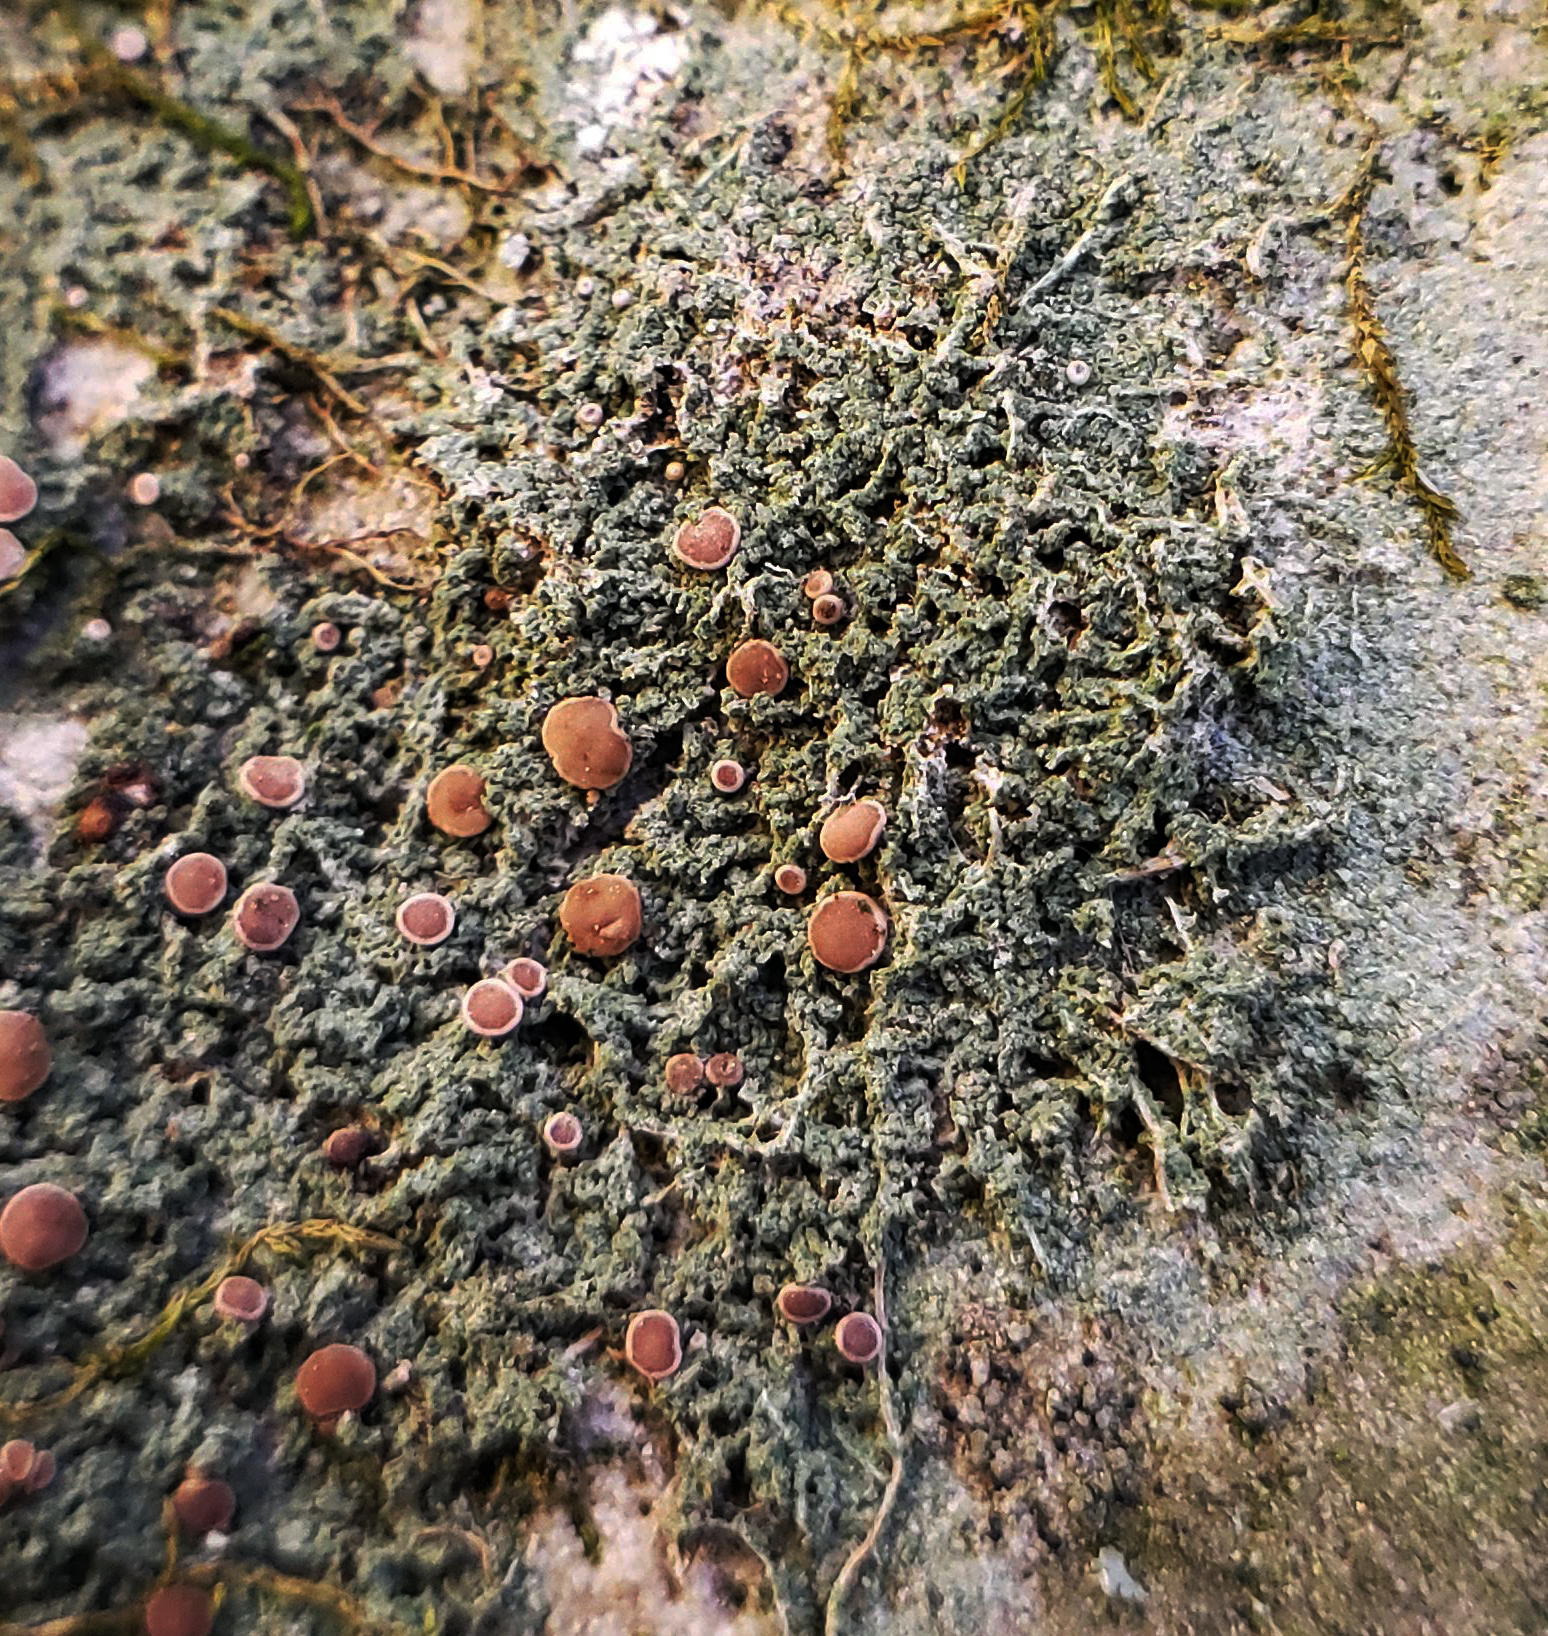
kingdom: Fungi
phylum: Ascomycota
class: Lecanoromycetes
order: Lecanorales
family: Ramalinaceae
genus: Bacidia
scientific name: Bacidia rubella
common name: Frosty-rimmed dot lichen
